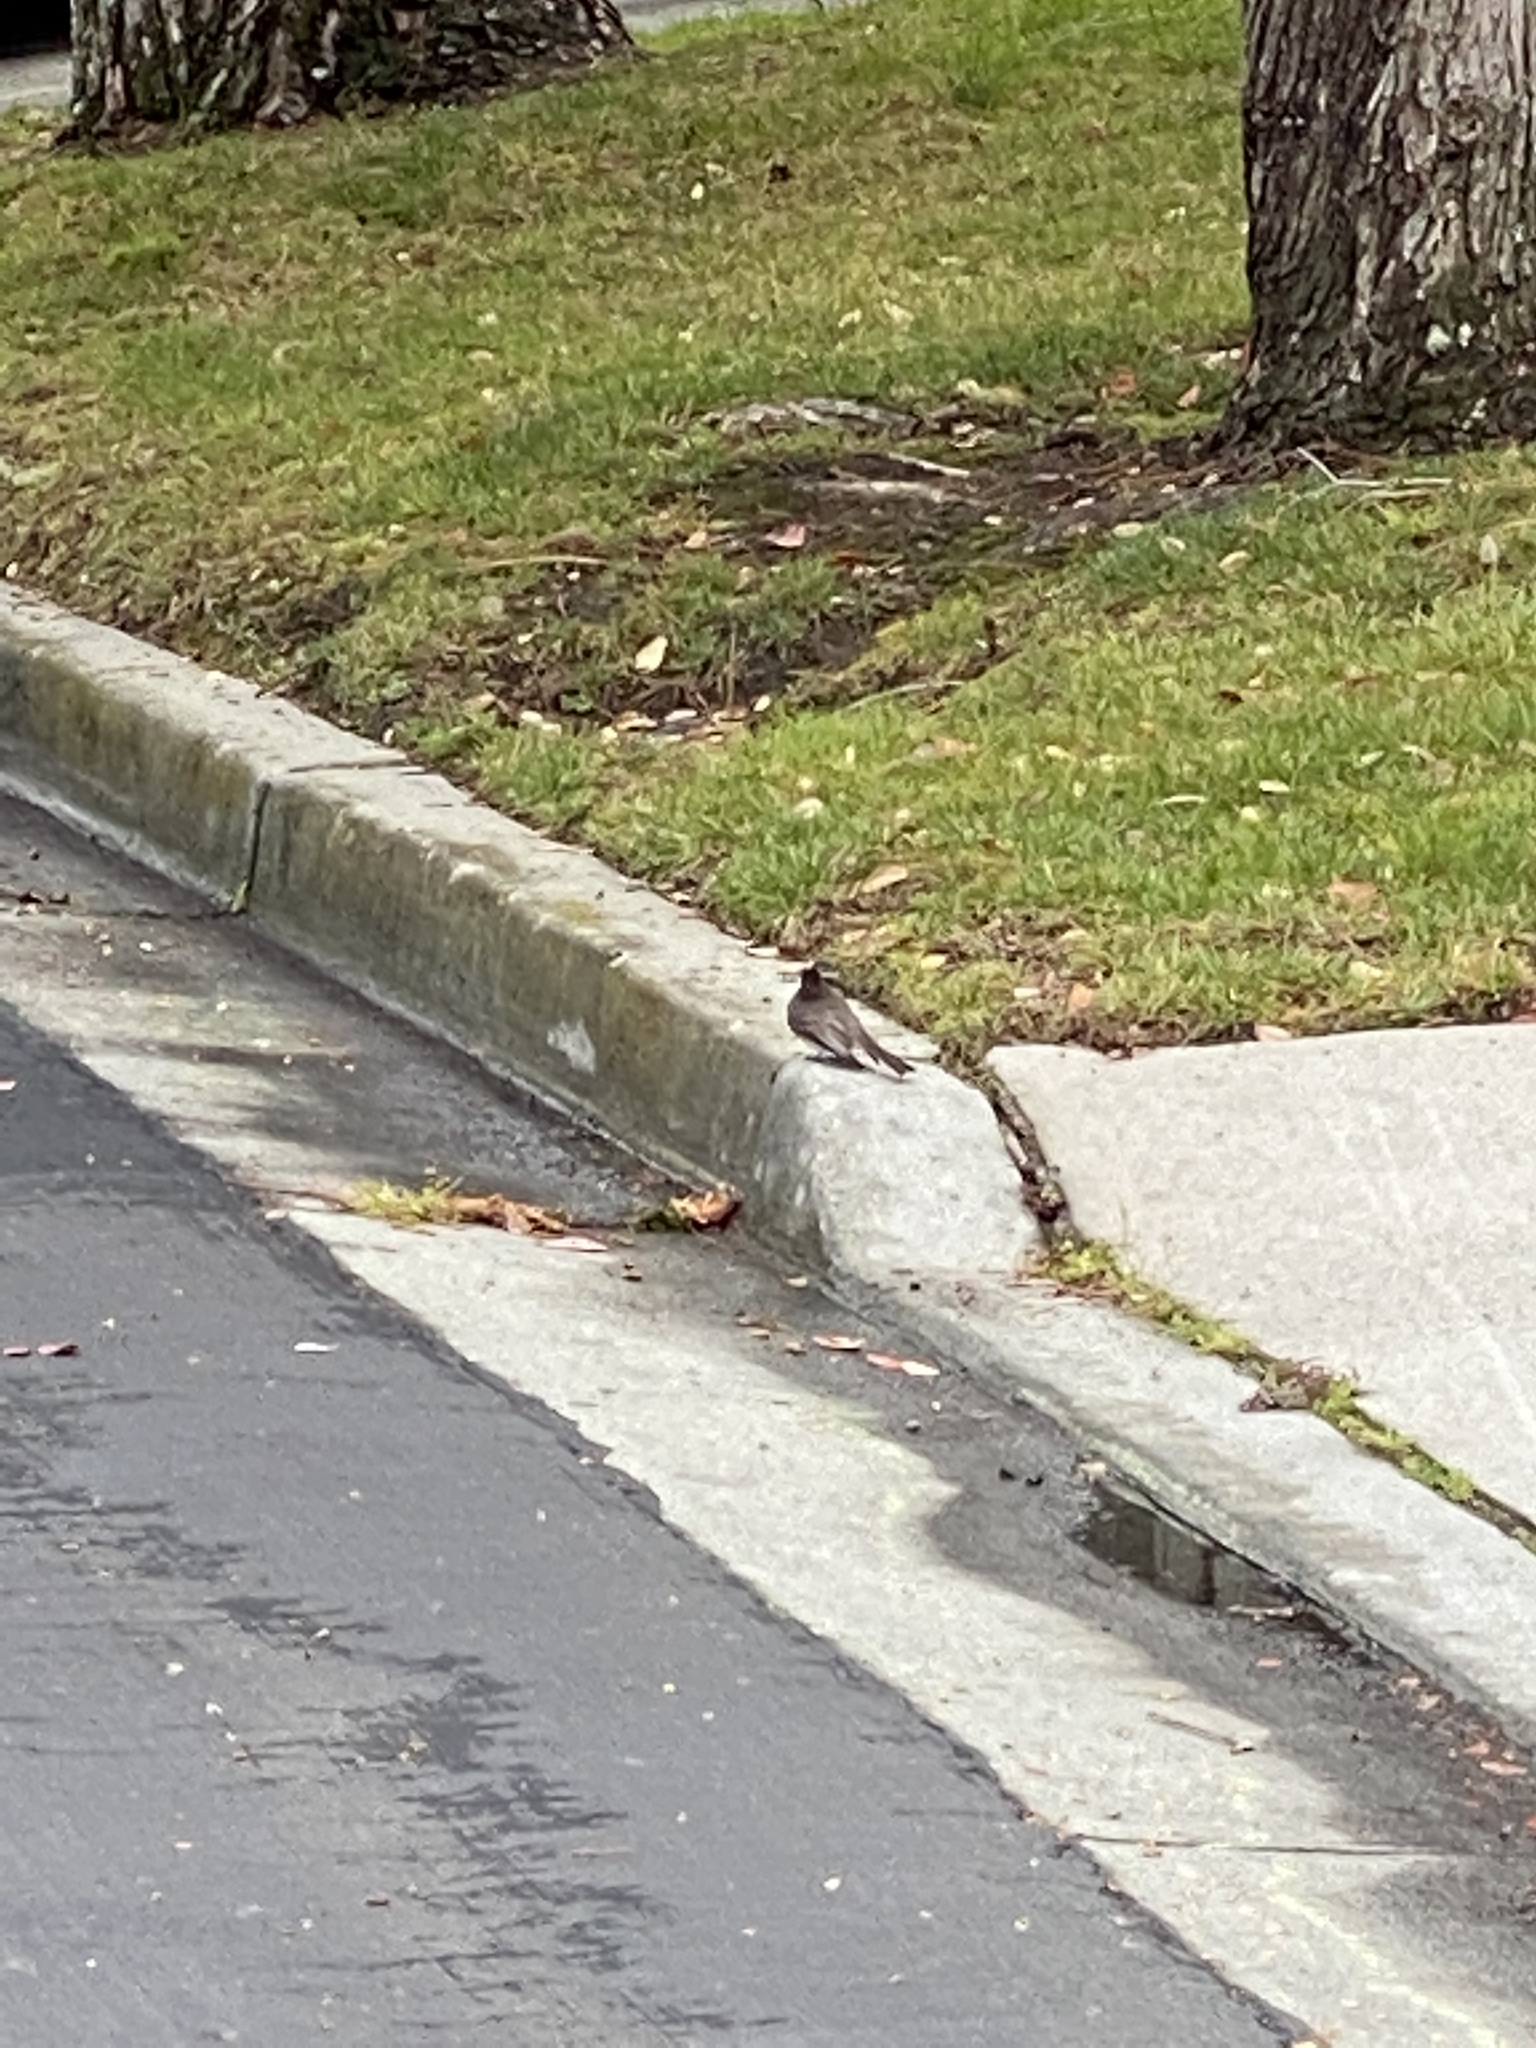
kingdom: Animalia
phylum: Chordata
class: Aves
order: Passeriformes
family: Tyrannidae
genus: Sayornis
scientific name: Sayornis nigricans
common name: Black phoebe
